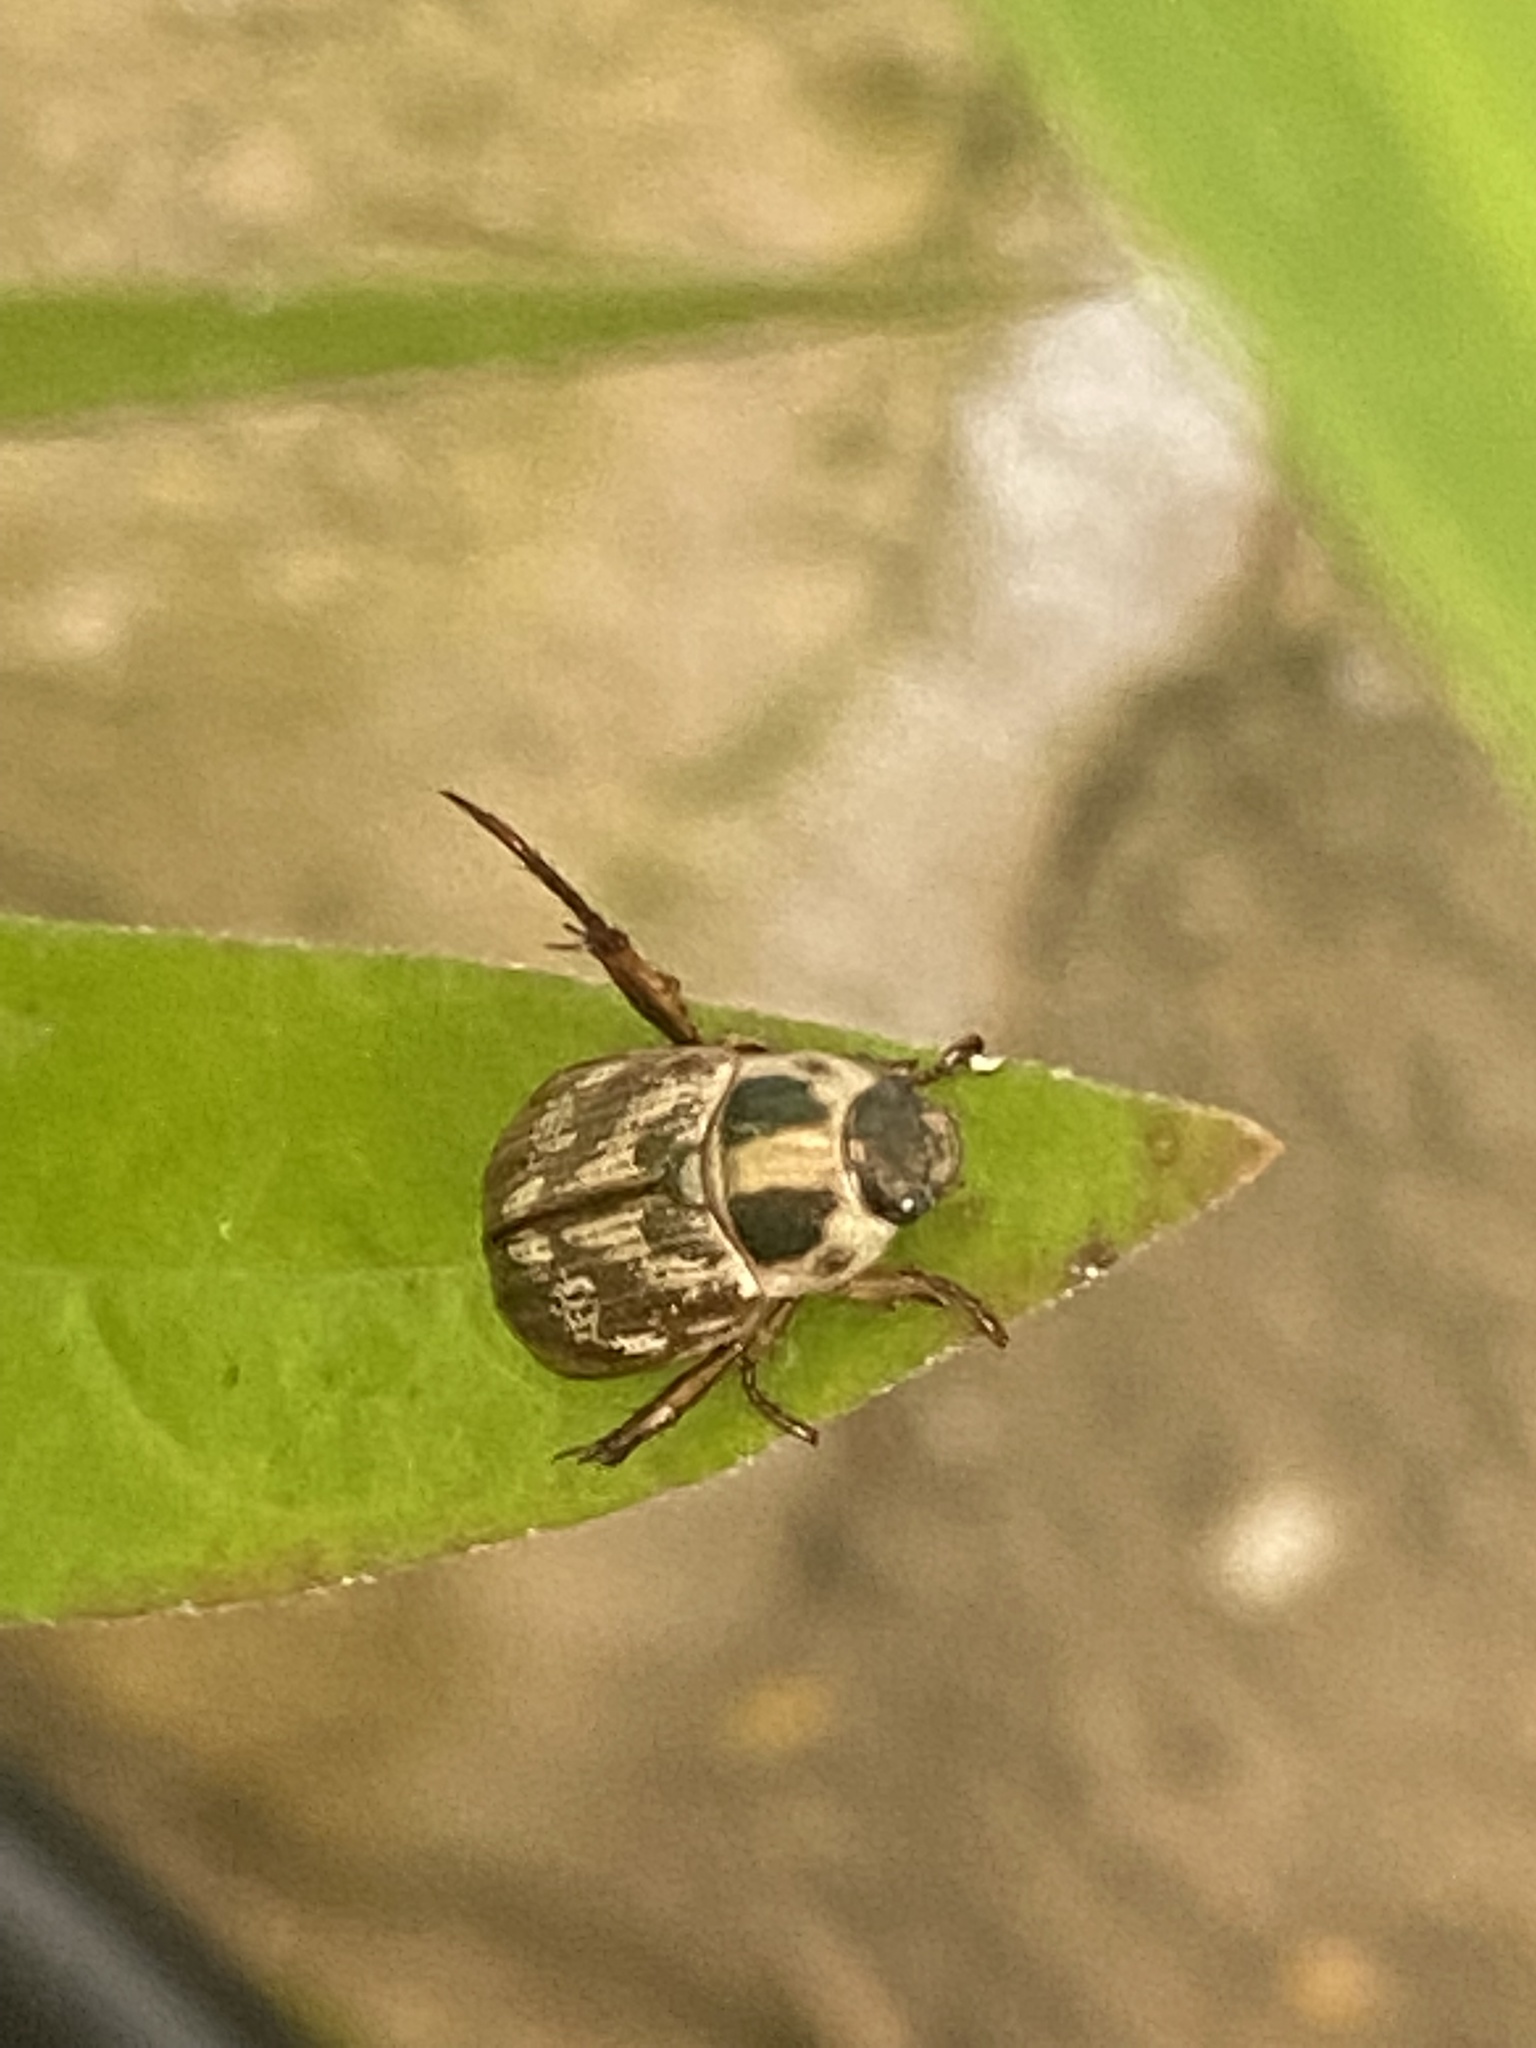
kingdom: Animalia
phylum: Arthropoda
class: Insecta
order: Coleoptera
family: Scarabaeidae
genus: Exomala
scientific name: Exomala orientalis
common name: Oriental beetle
